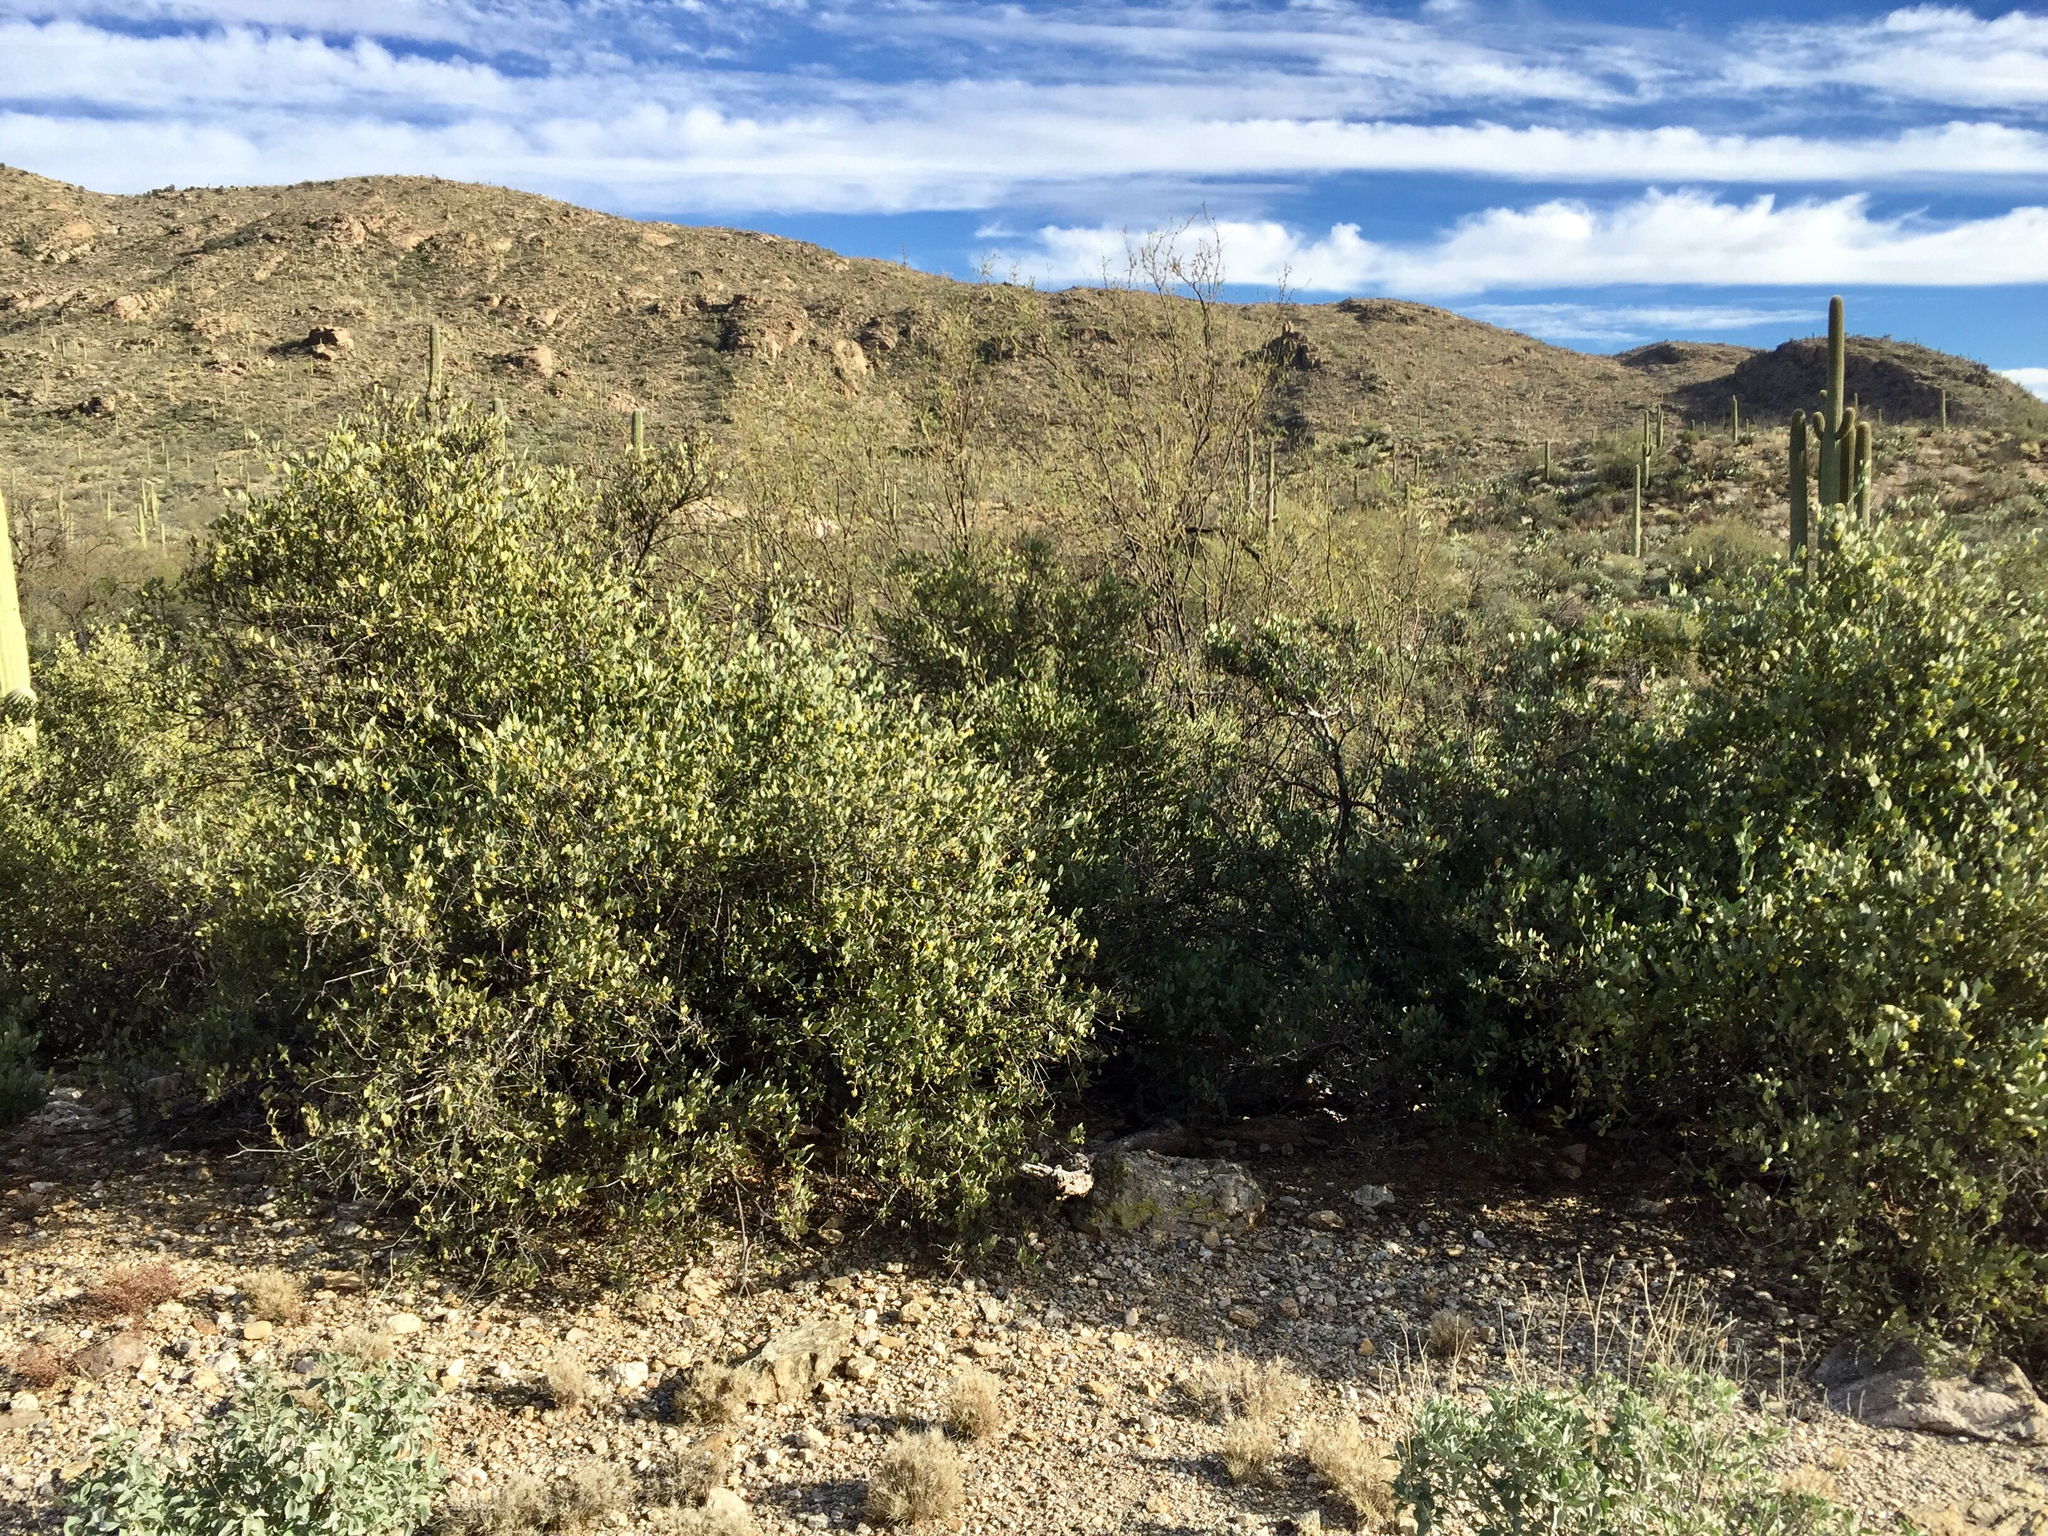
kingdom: Plantae
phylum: Tracheophyta
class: Magnoliopsida
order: Caryophyllales
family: Simmondsiaceae
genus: Simmondsia
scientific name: Simmondsia chinensis
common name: Jojoba
